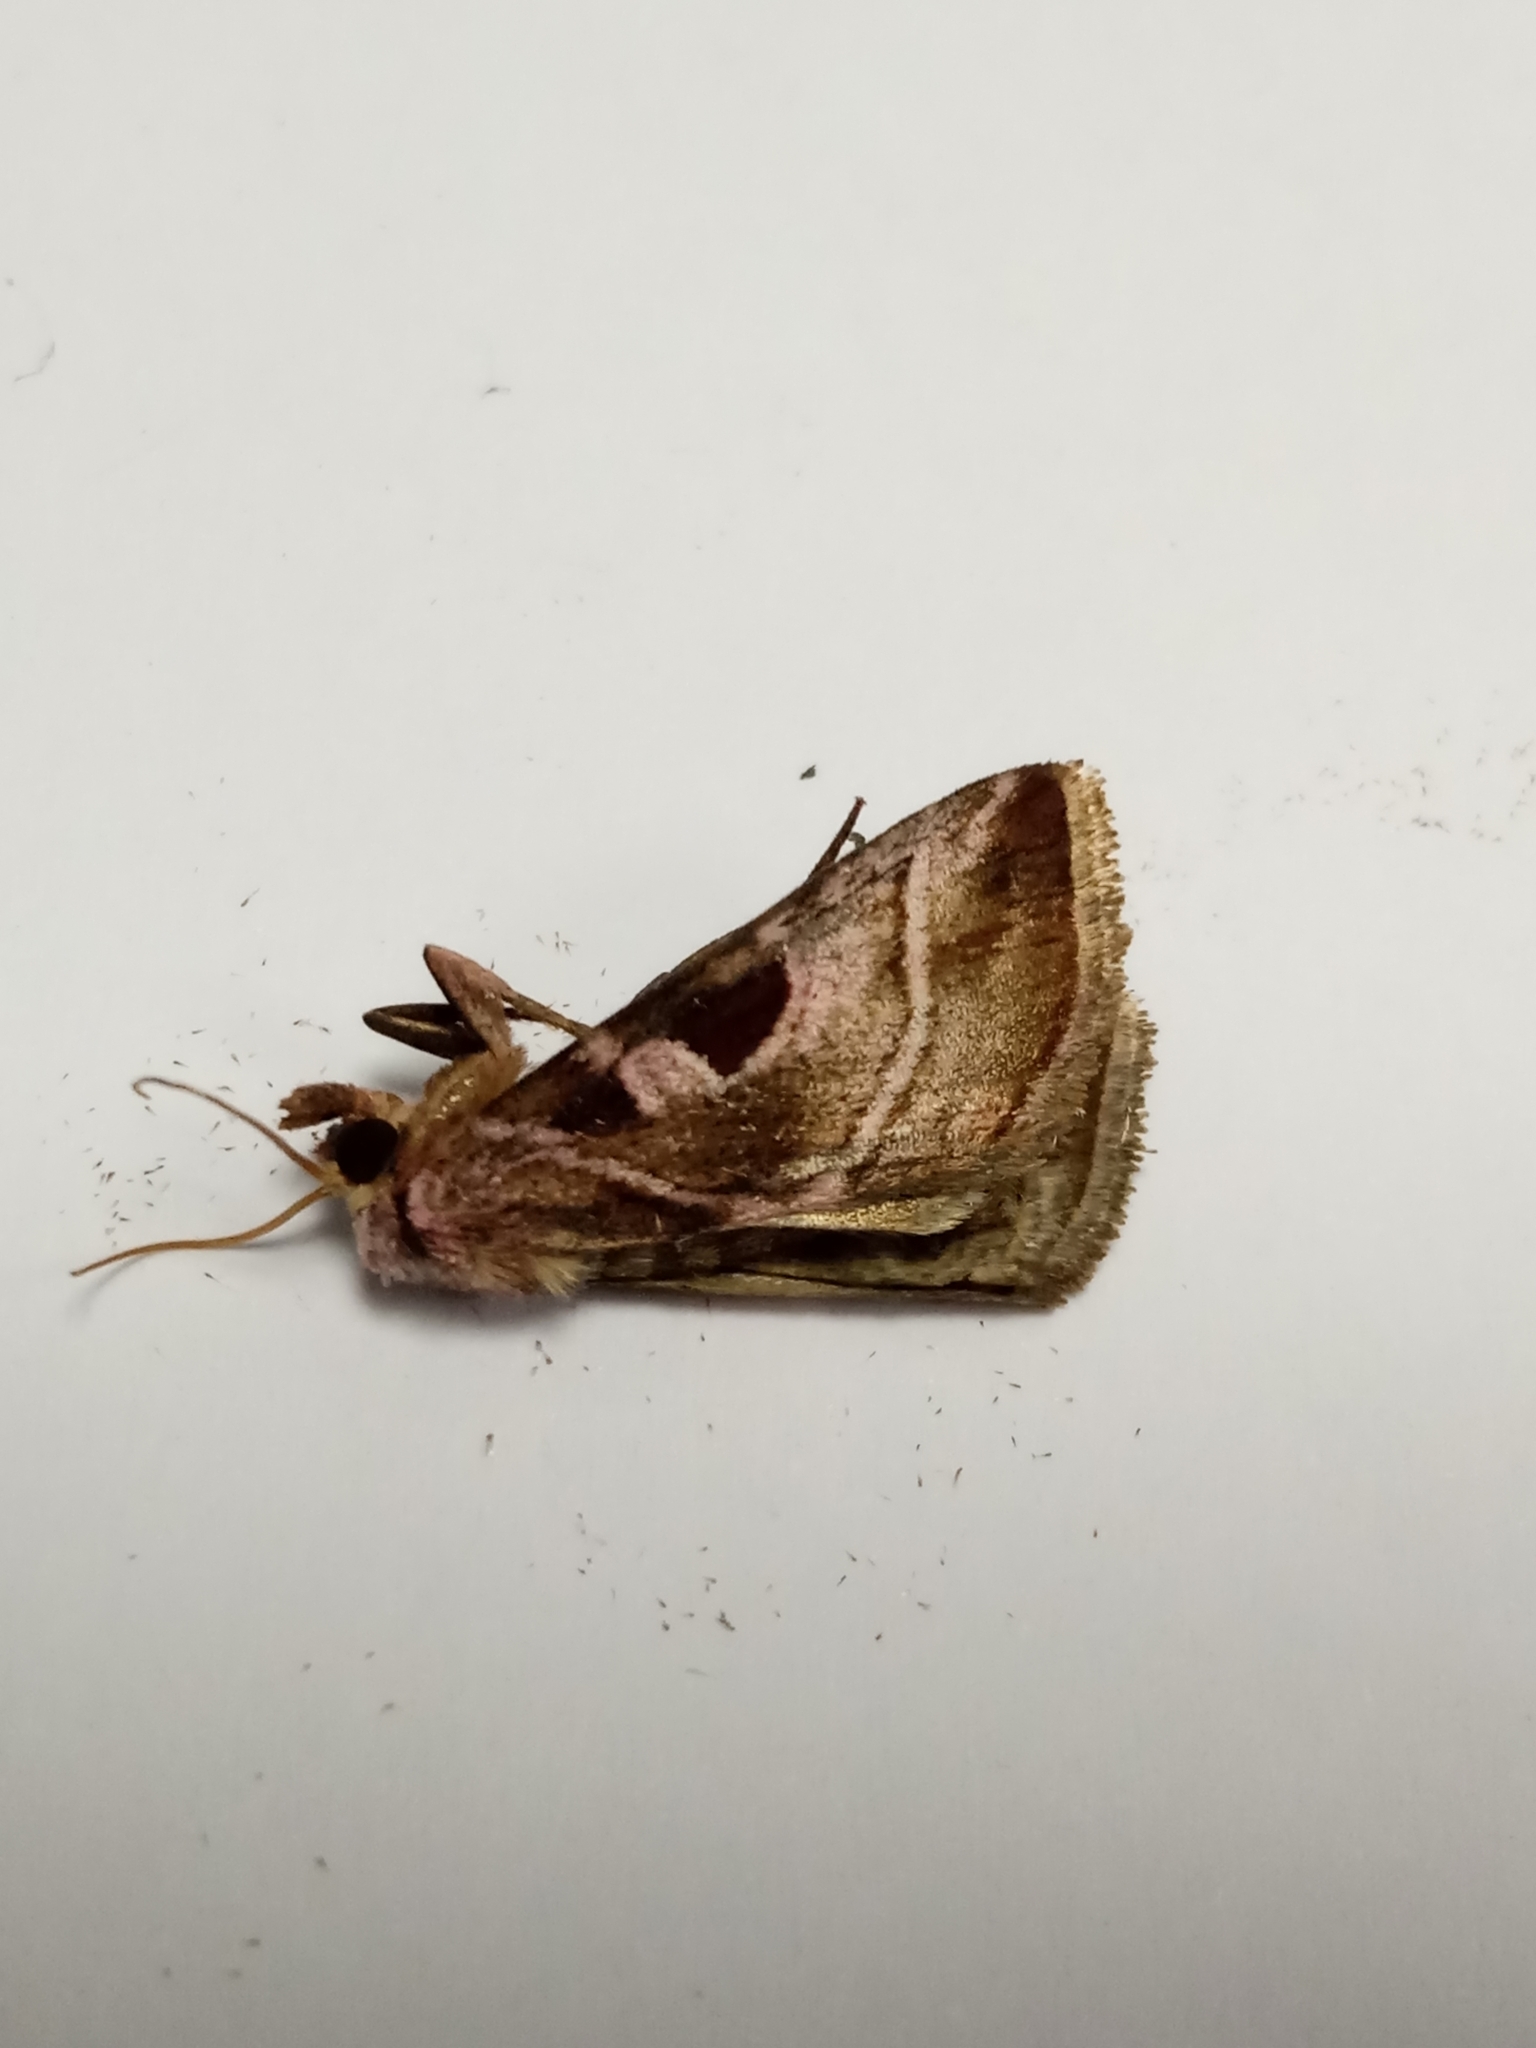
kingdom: Animalia
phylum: Arthropoda
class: Insecta
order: Lepidoptera
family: Noctuidae
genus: Eucarta
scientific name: Eucarta virgo
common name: Silvery gem
